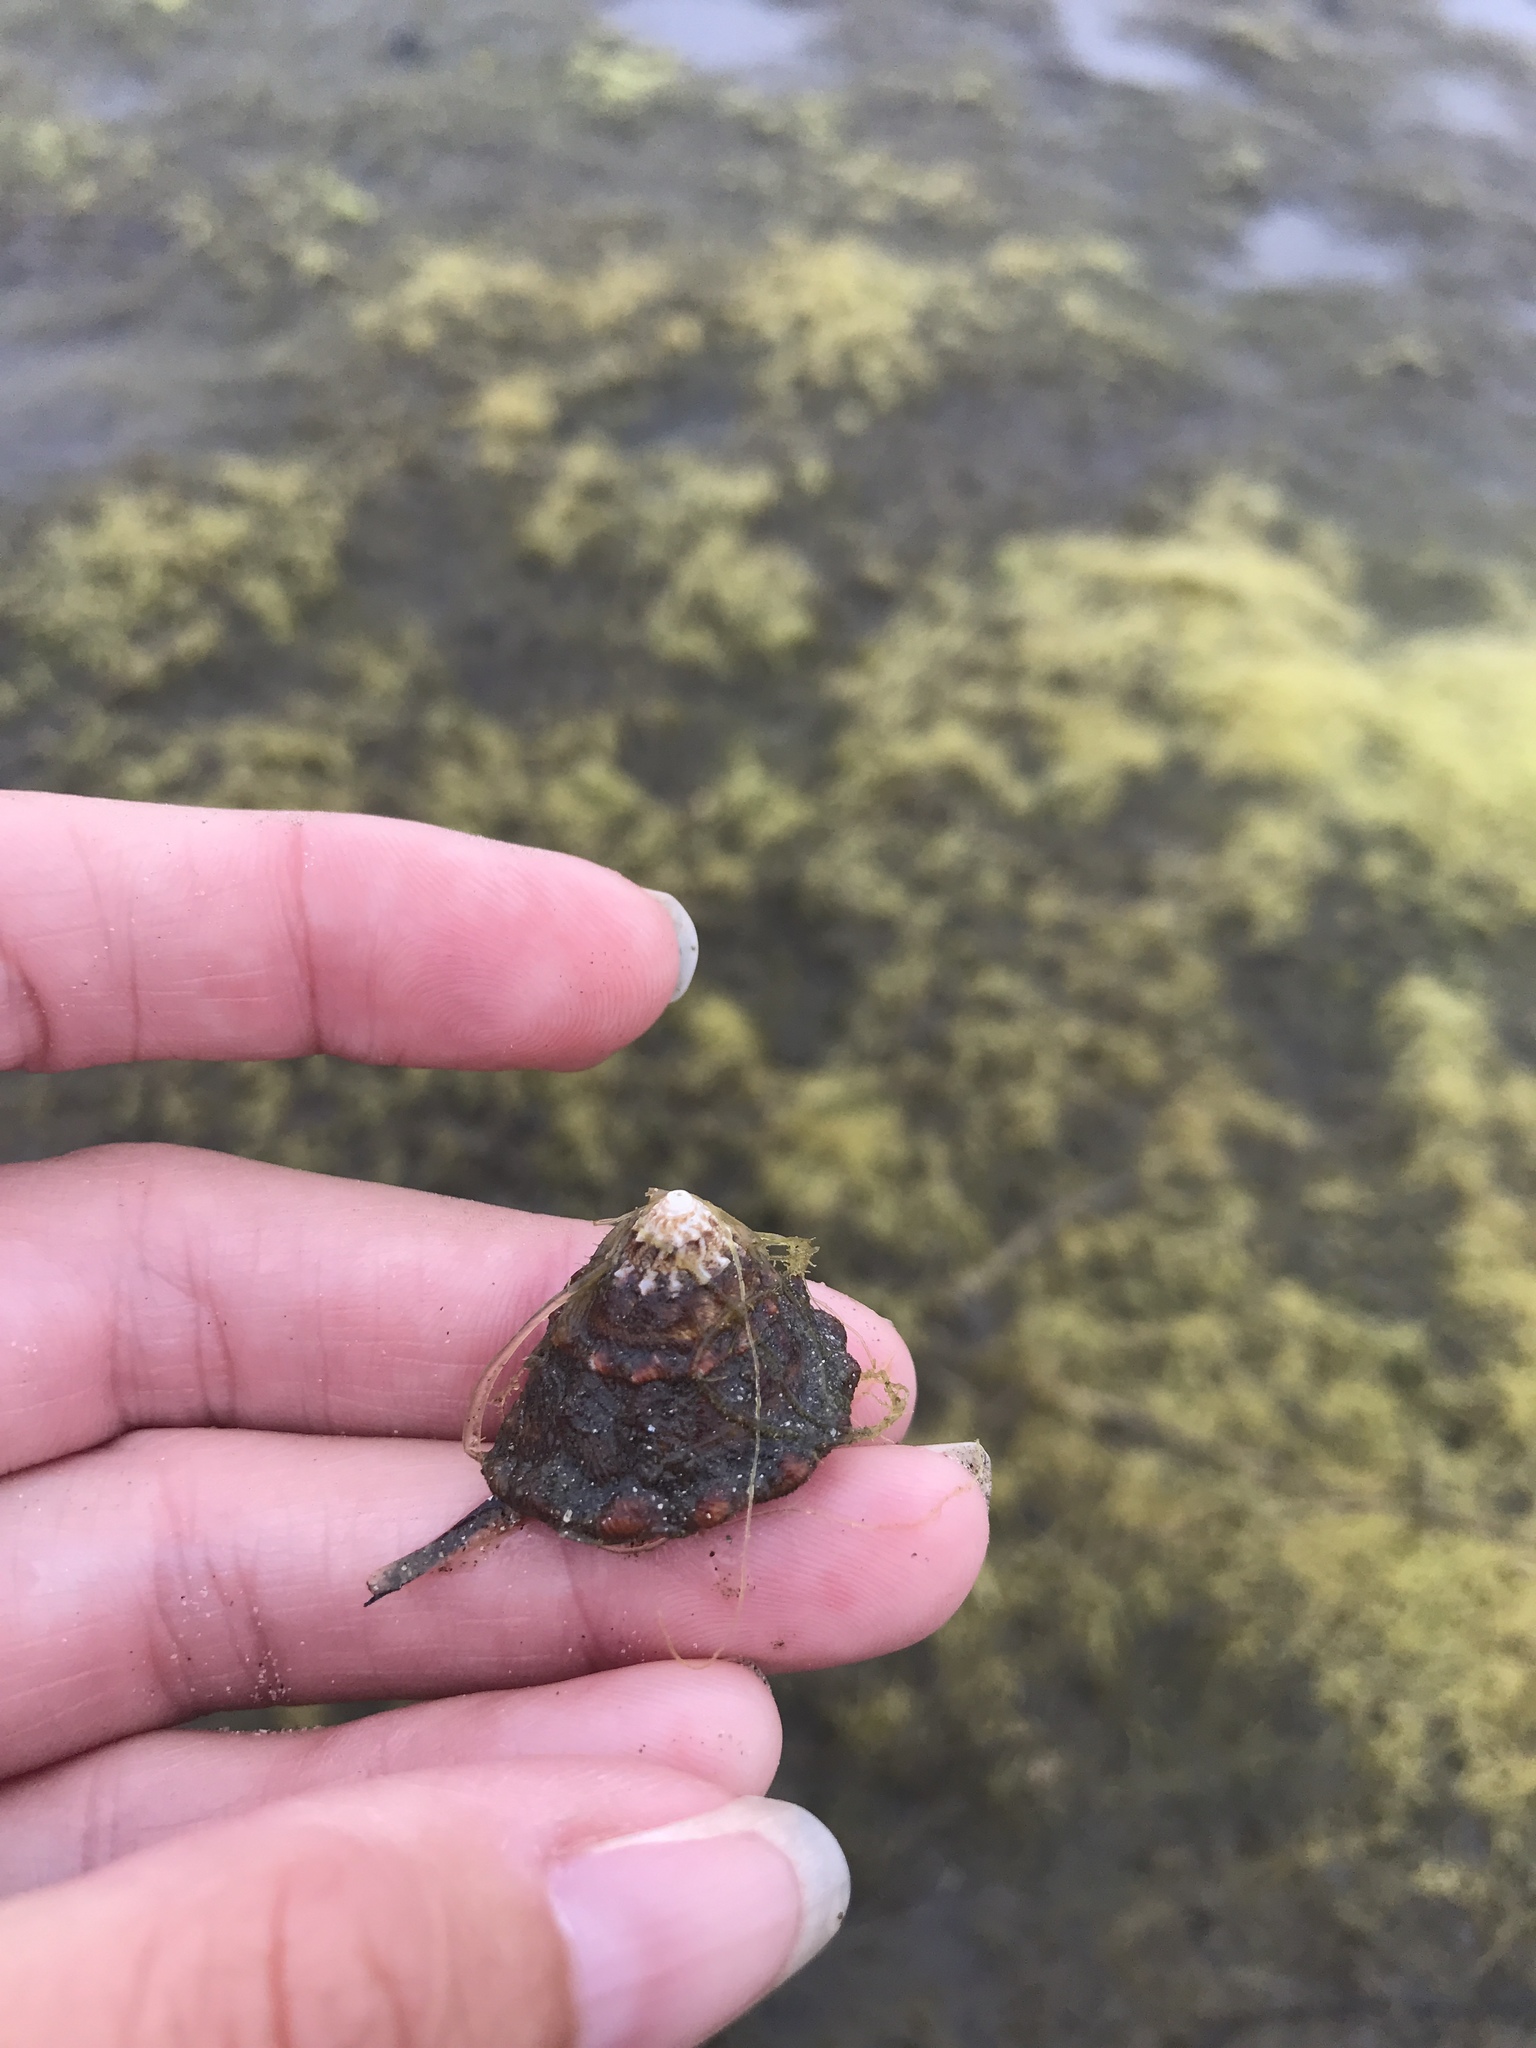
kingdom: Animalia
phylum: Mollusca
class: Gastropoda
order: Trochida
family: Turbinidae
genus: Megastraea
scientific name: Megastraea undosa
